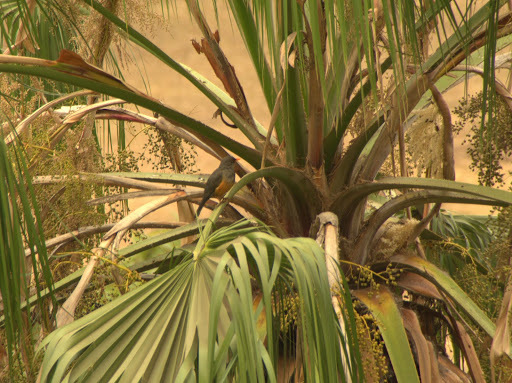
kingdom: Animalia
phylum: Chordata
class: Aves
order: Passeriformes
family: Turdidae
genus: Turdus
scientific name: Turdus abyssinicus
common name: Abyssinian thrush
